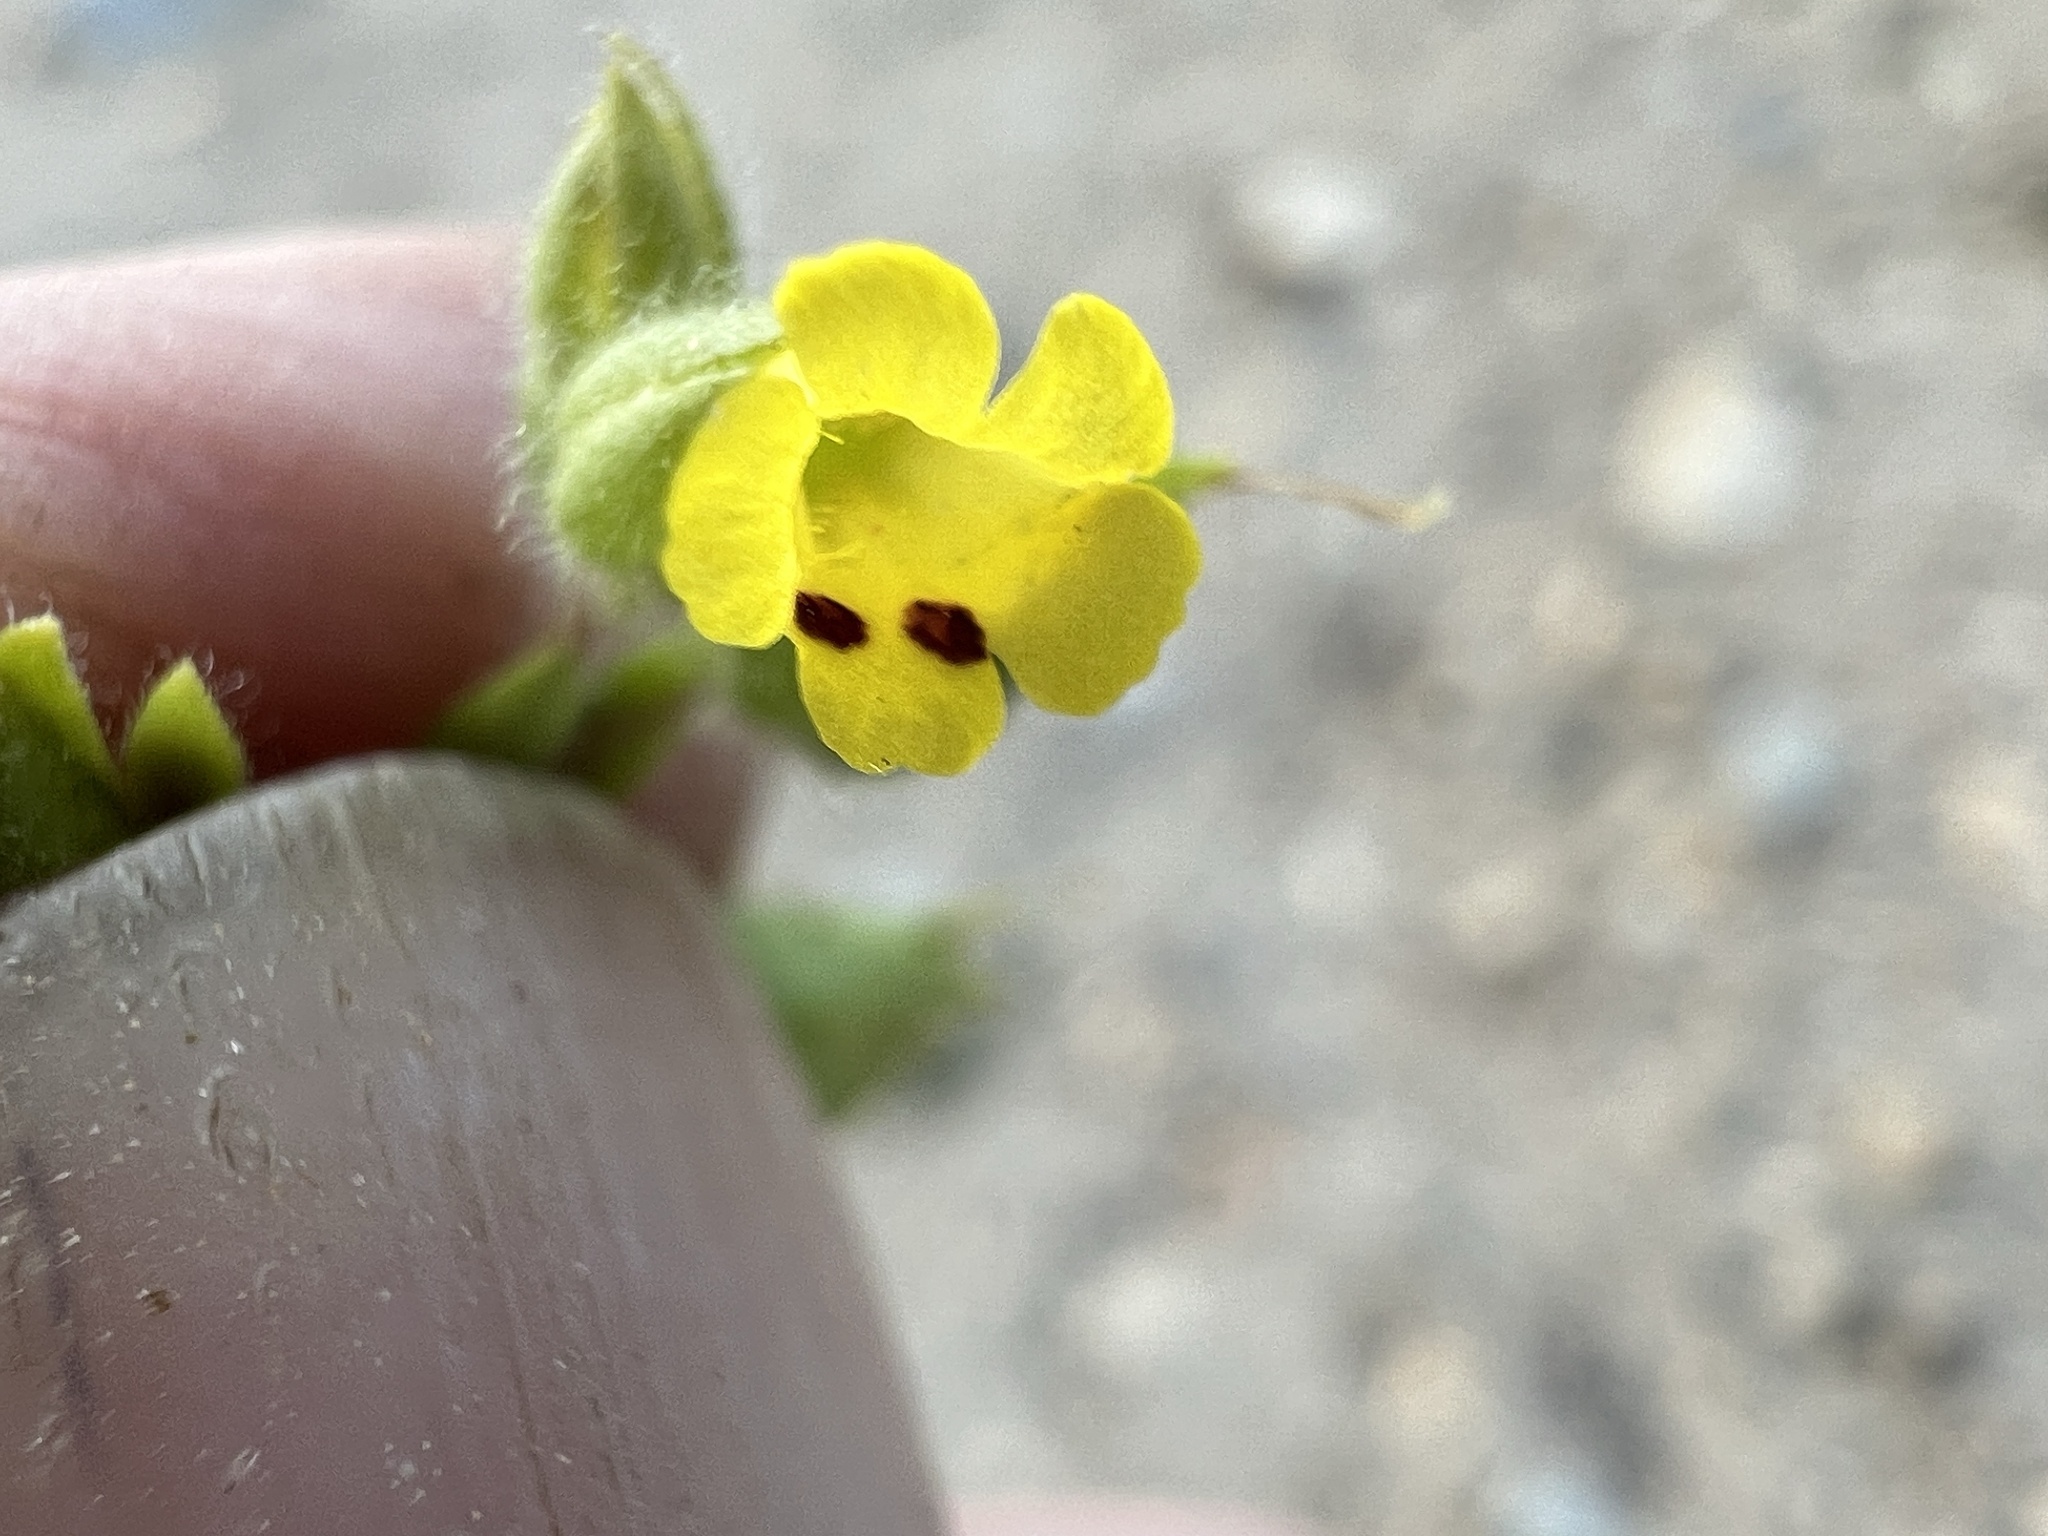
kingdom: Plantae
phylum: Tracheophyta
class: Magnoliopsida
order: Lamiales
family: Phrymaceae
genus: Mimetanthe
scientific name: Mimetanthe pilosa
